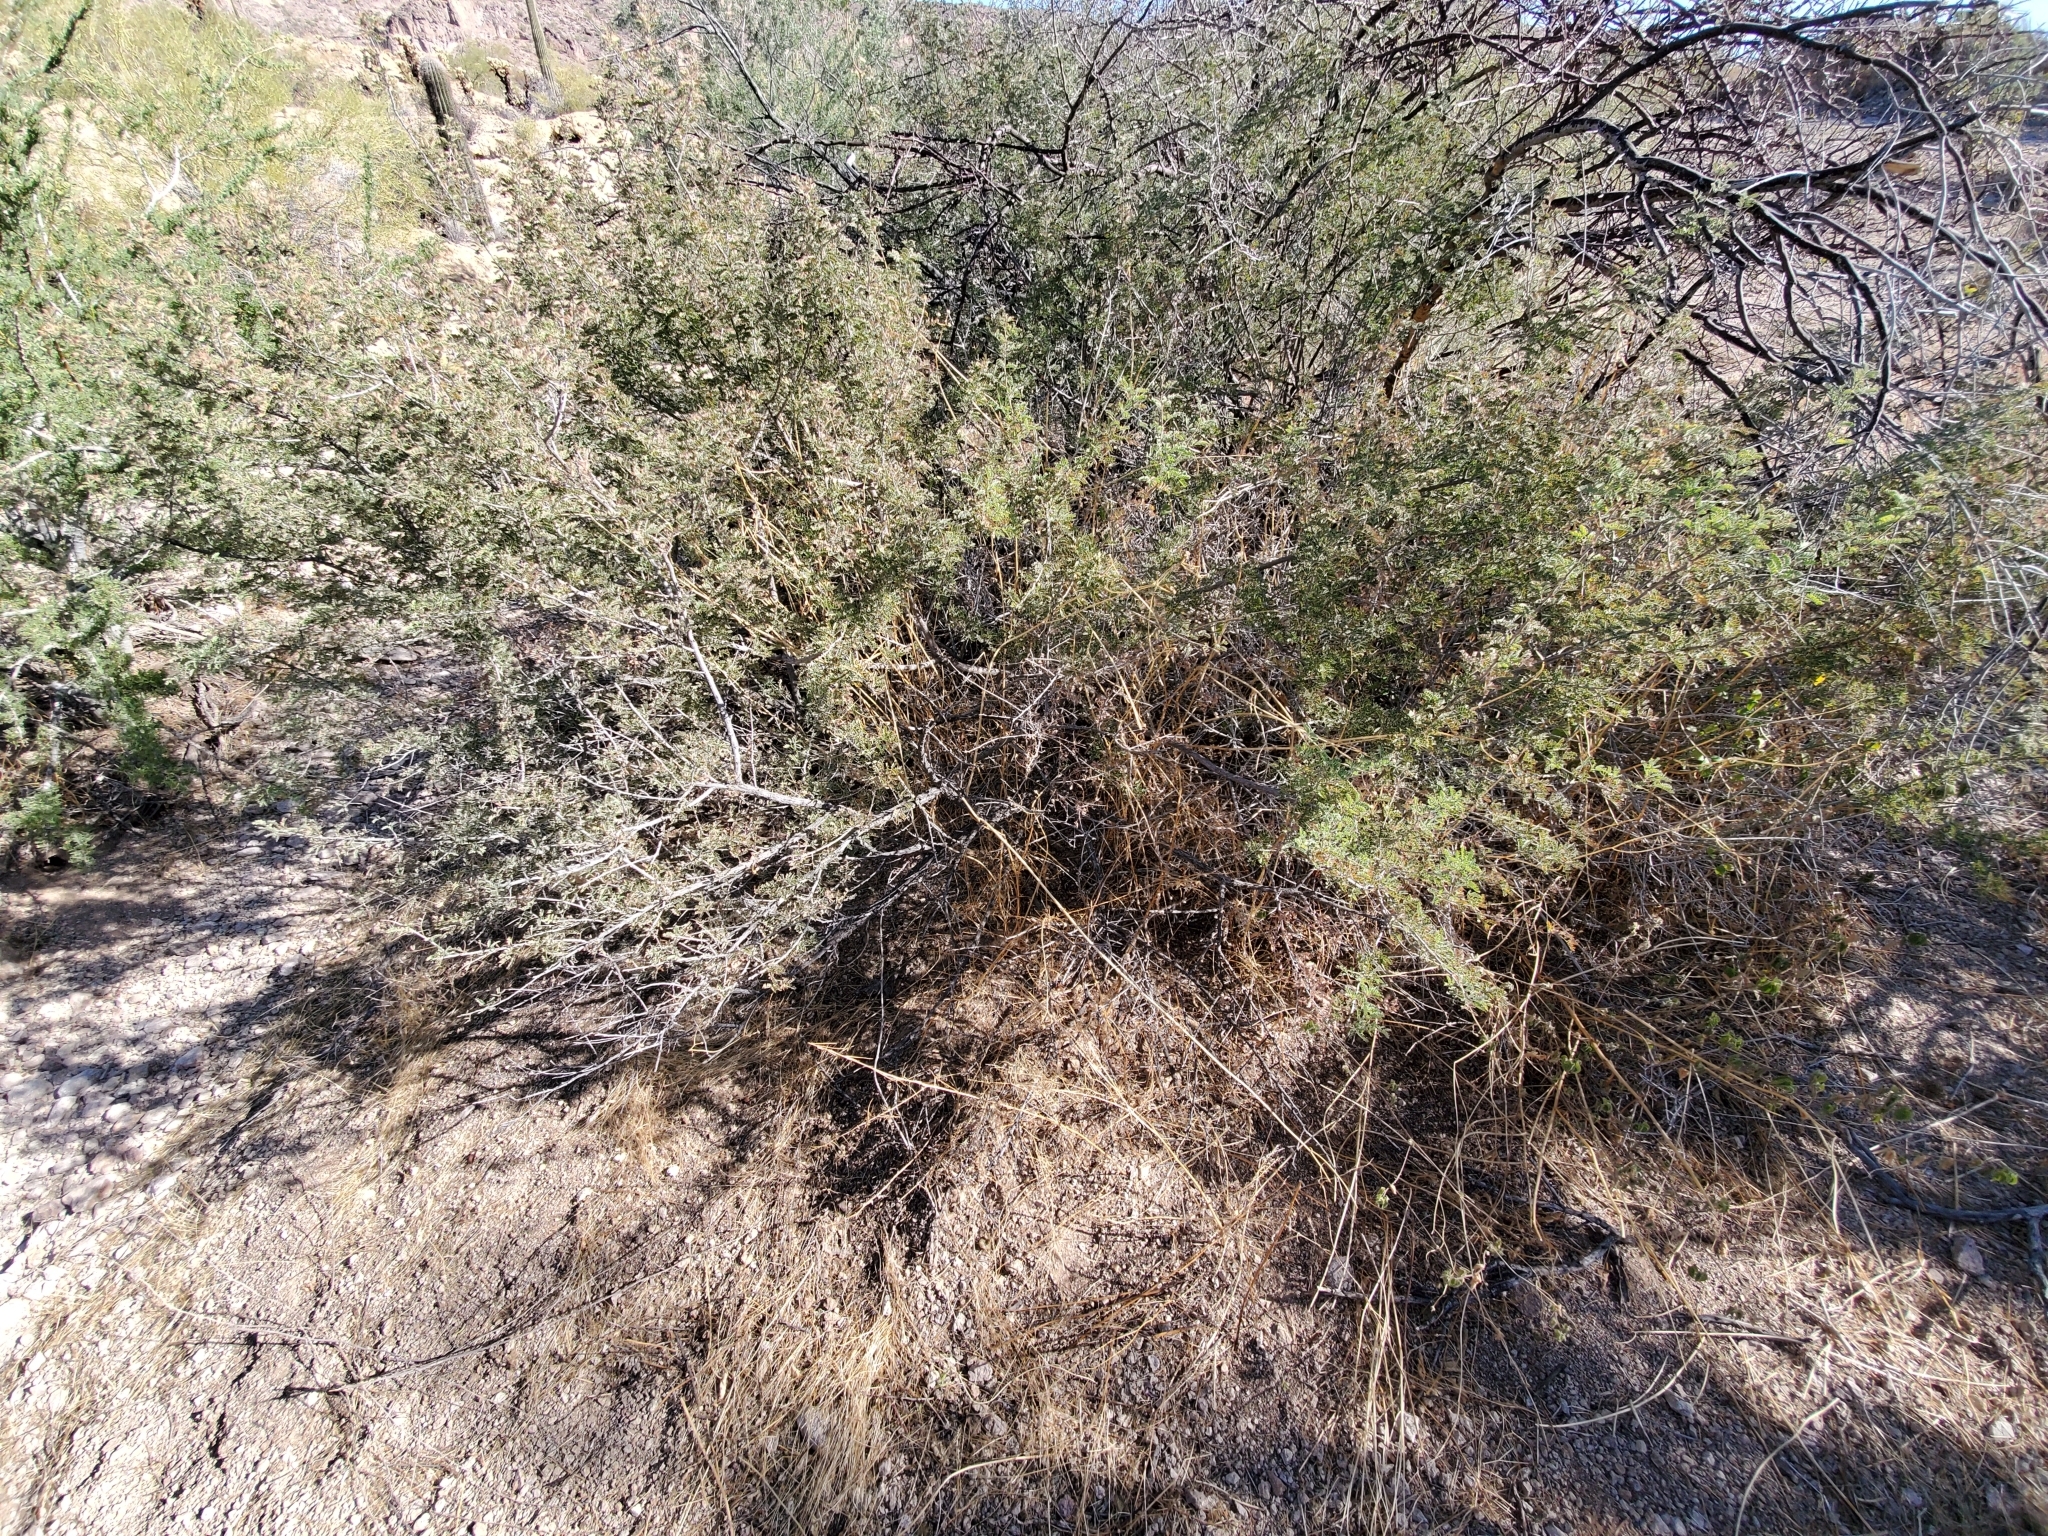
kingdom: Plantae
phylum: Tracheophyta
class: Magnoliopsida
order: Fabales
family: Fabaceae
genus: Senegalia
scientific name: Senegalia greggii
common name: Texas-mimosa
